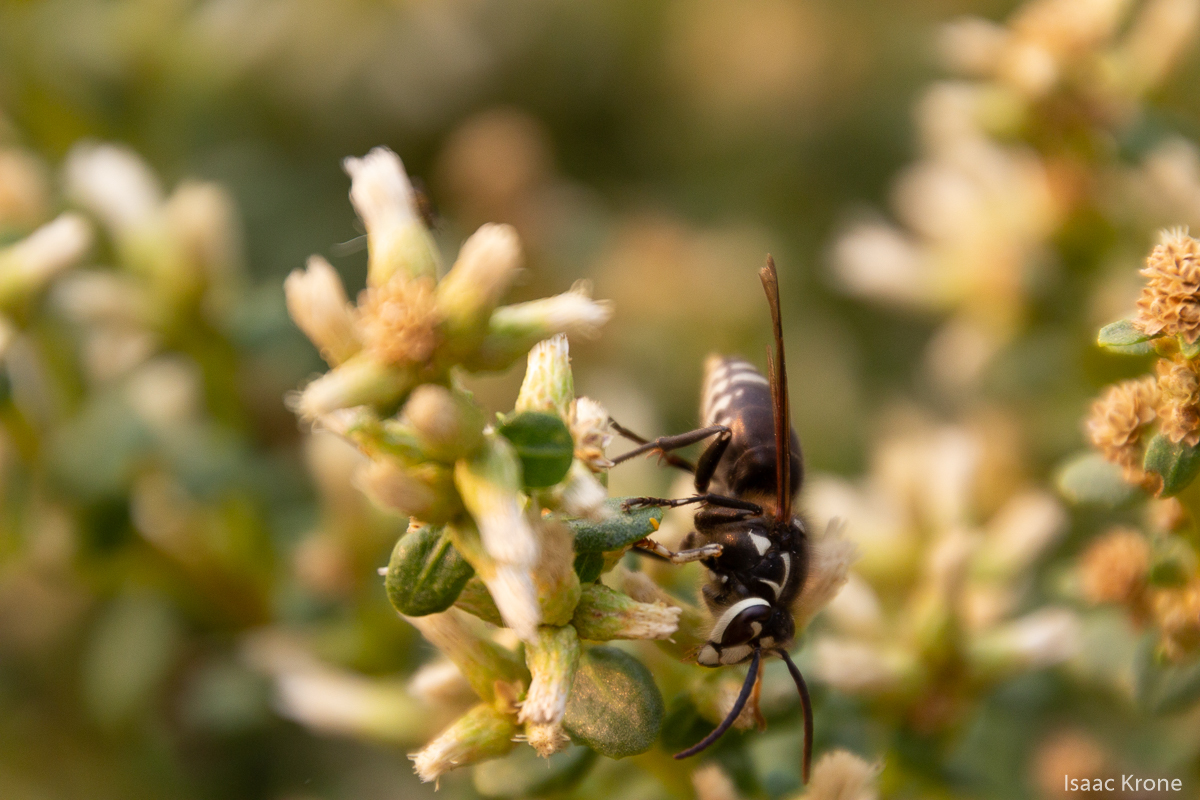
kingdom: Animalia
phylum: Arthropoda
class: Insecta
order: Hymenoptera
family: Vespidae
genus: Dolichovespula
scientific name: Dolichovespula maculata
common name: Bald-faced hornet
